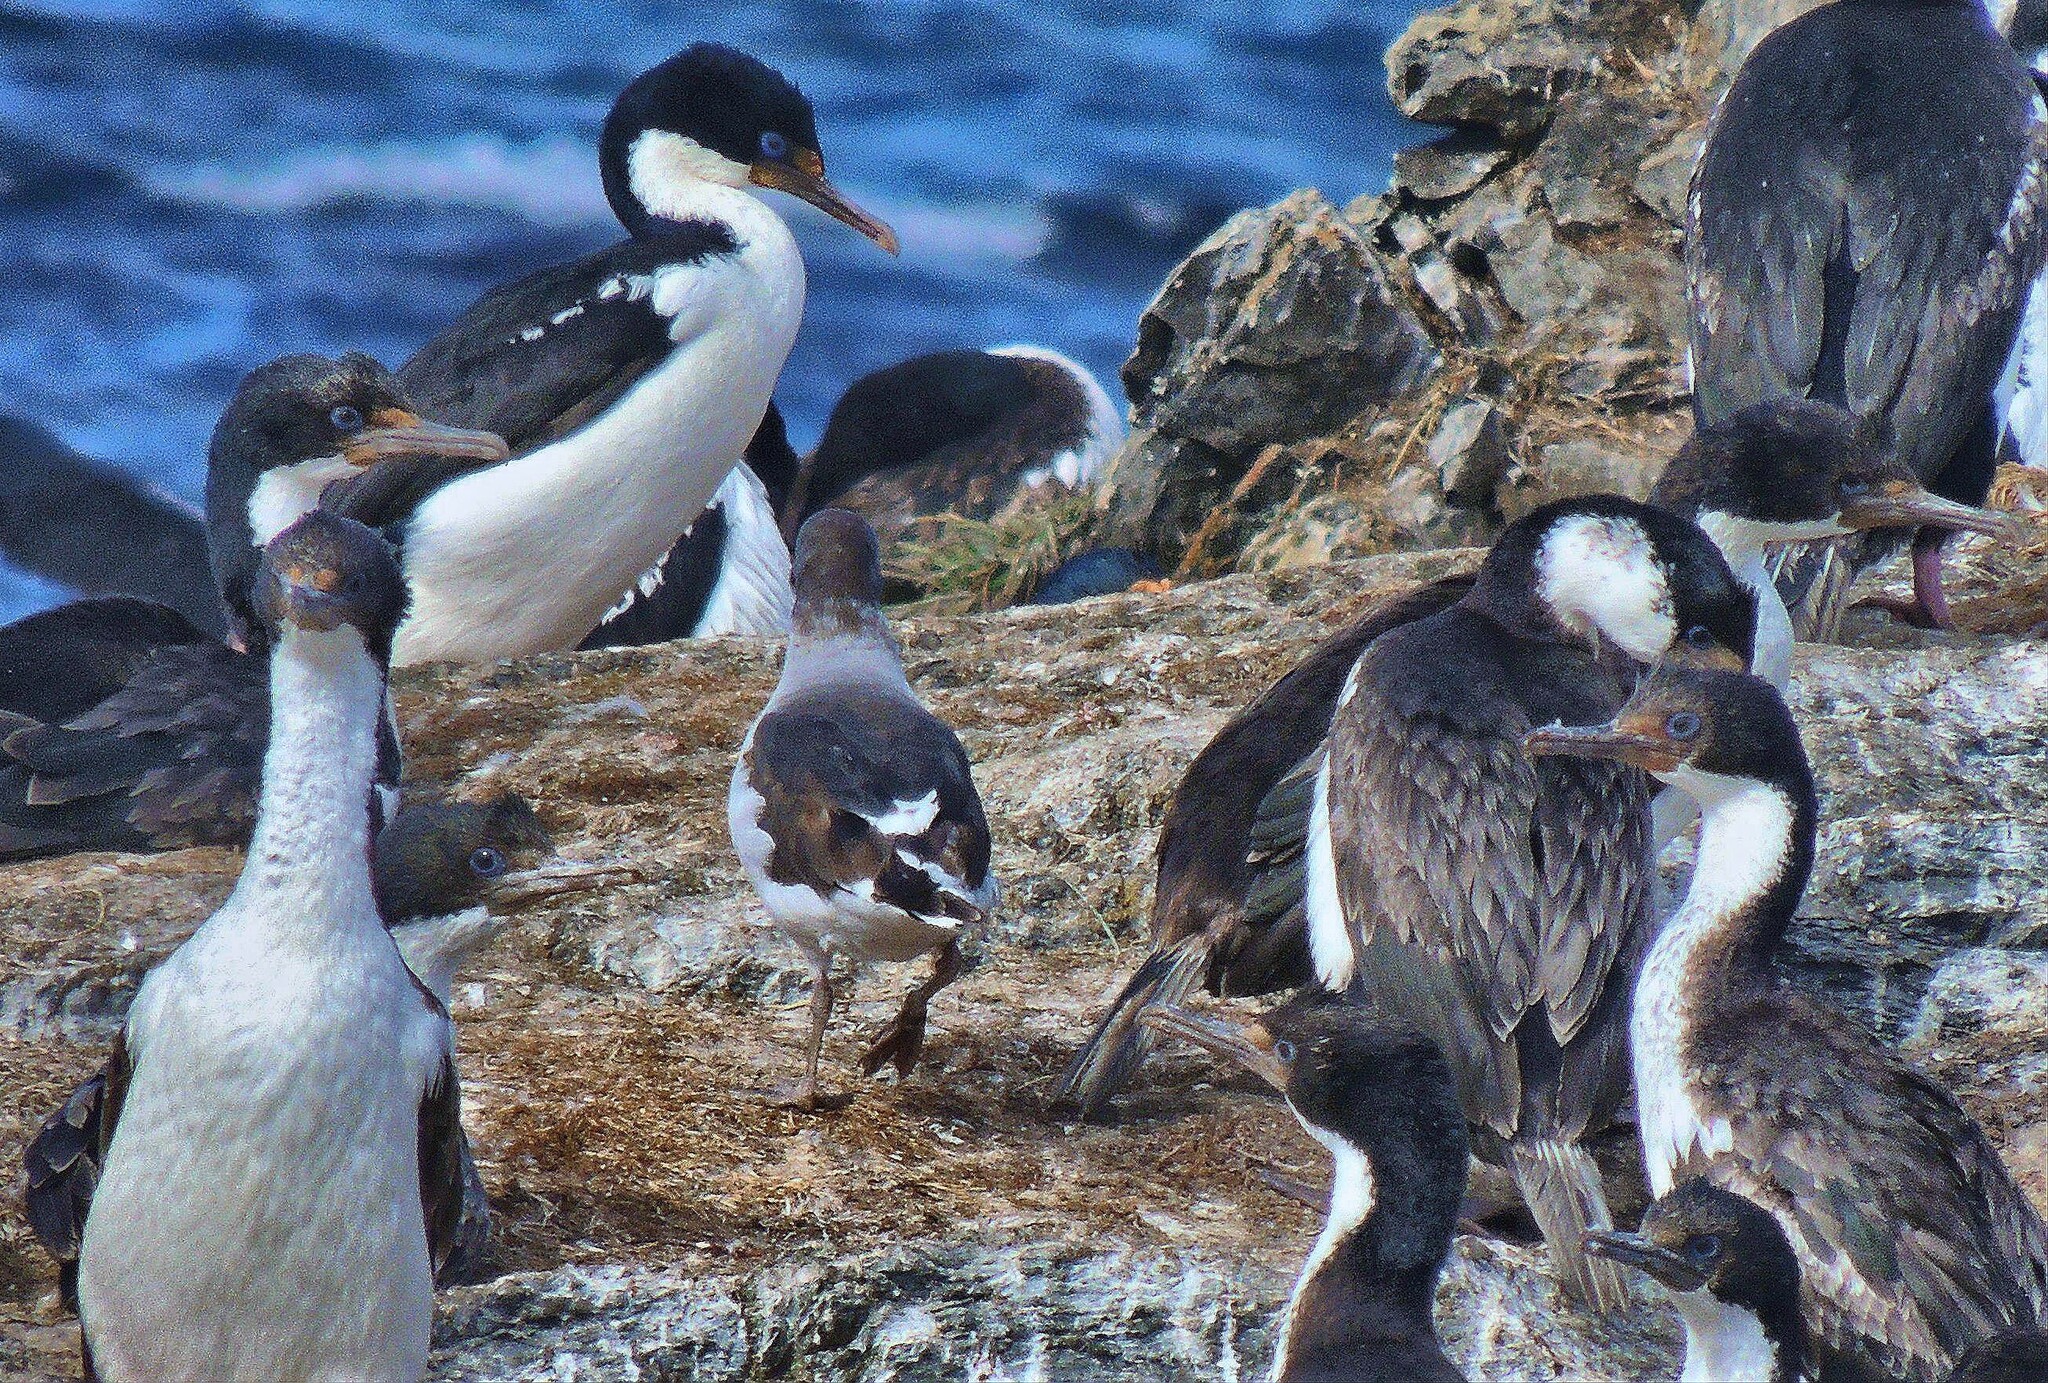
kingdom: Animalia
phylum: Chordata
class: Aves
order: Suliformes
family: Phalacrocoracidae
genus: Leucocarbo
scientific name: Leucocarbo atriceps
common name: Imperial shag
